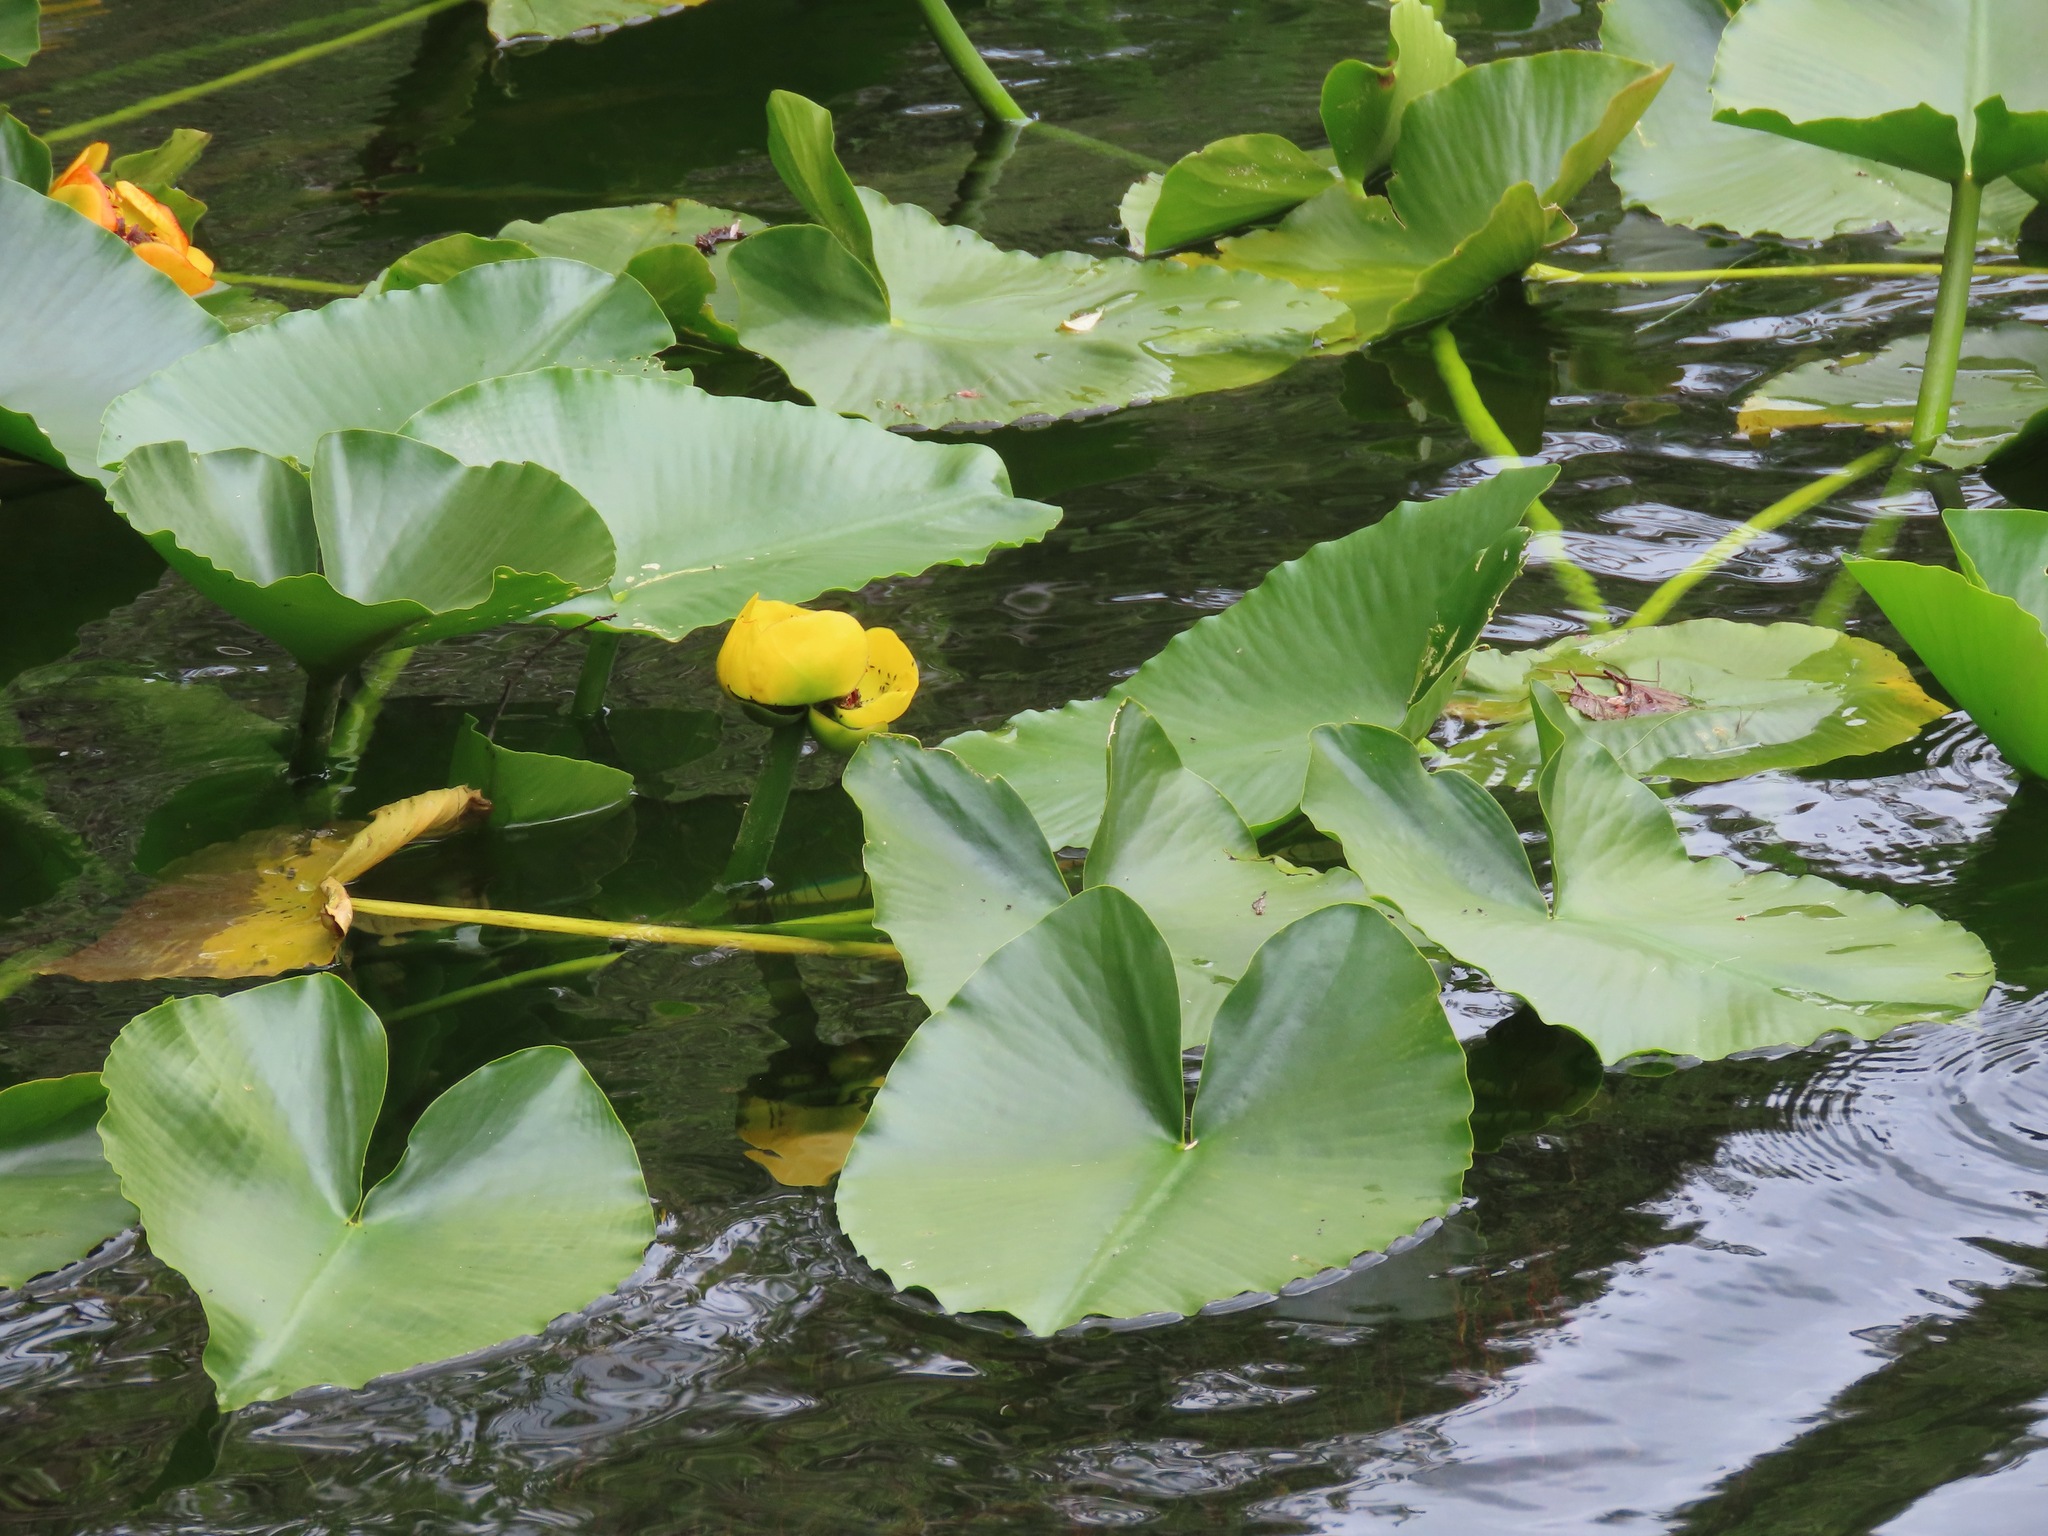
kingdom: Plantae
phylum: Tracheophyta
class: Magnoliopsida
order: Nymphaeales
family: Nymphaeaceae
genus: Nuphar
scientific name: Nuphar polysepala
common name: Rocky mountain cow-lily
